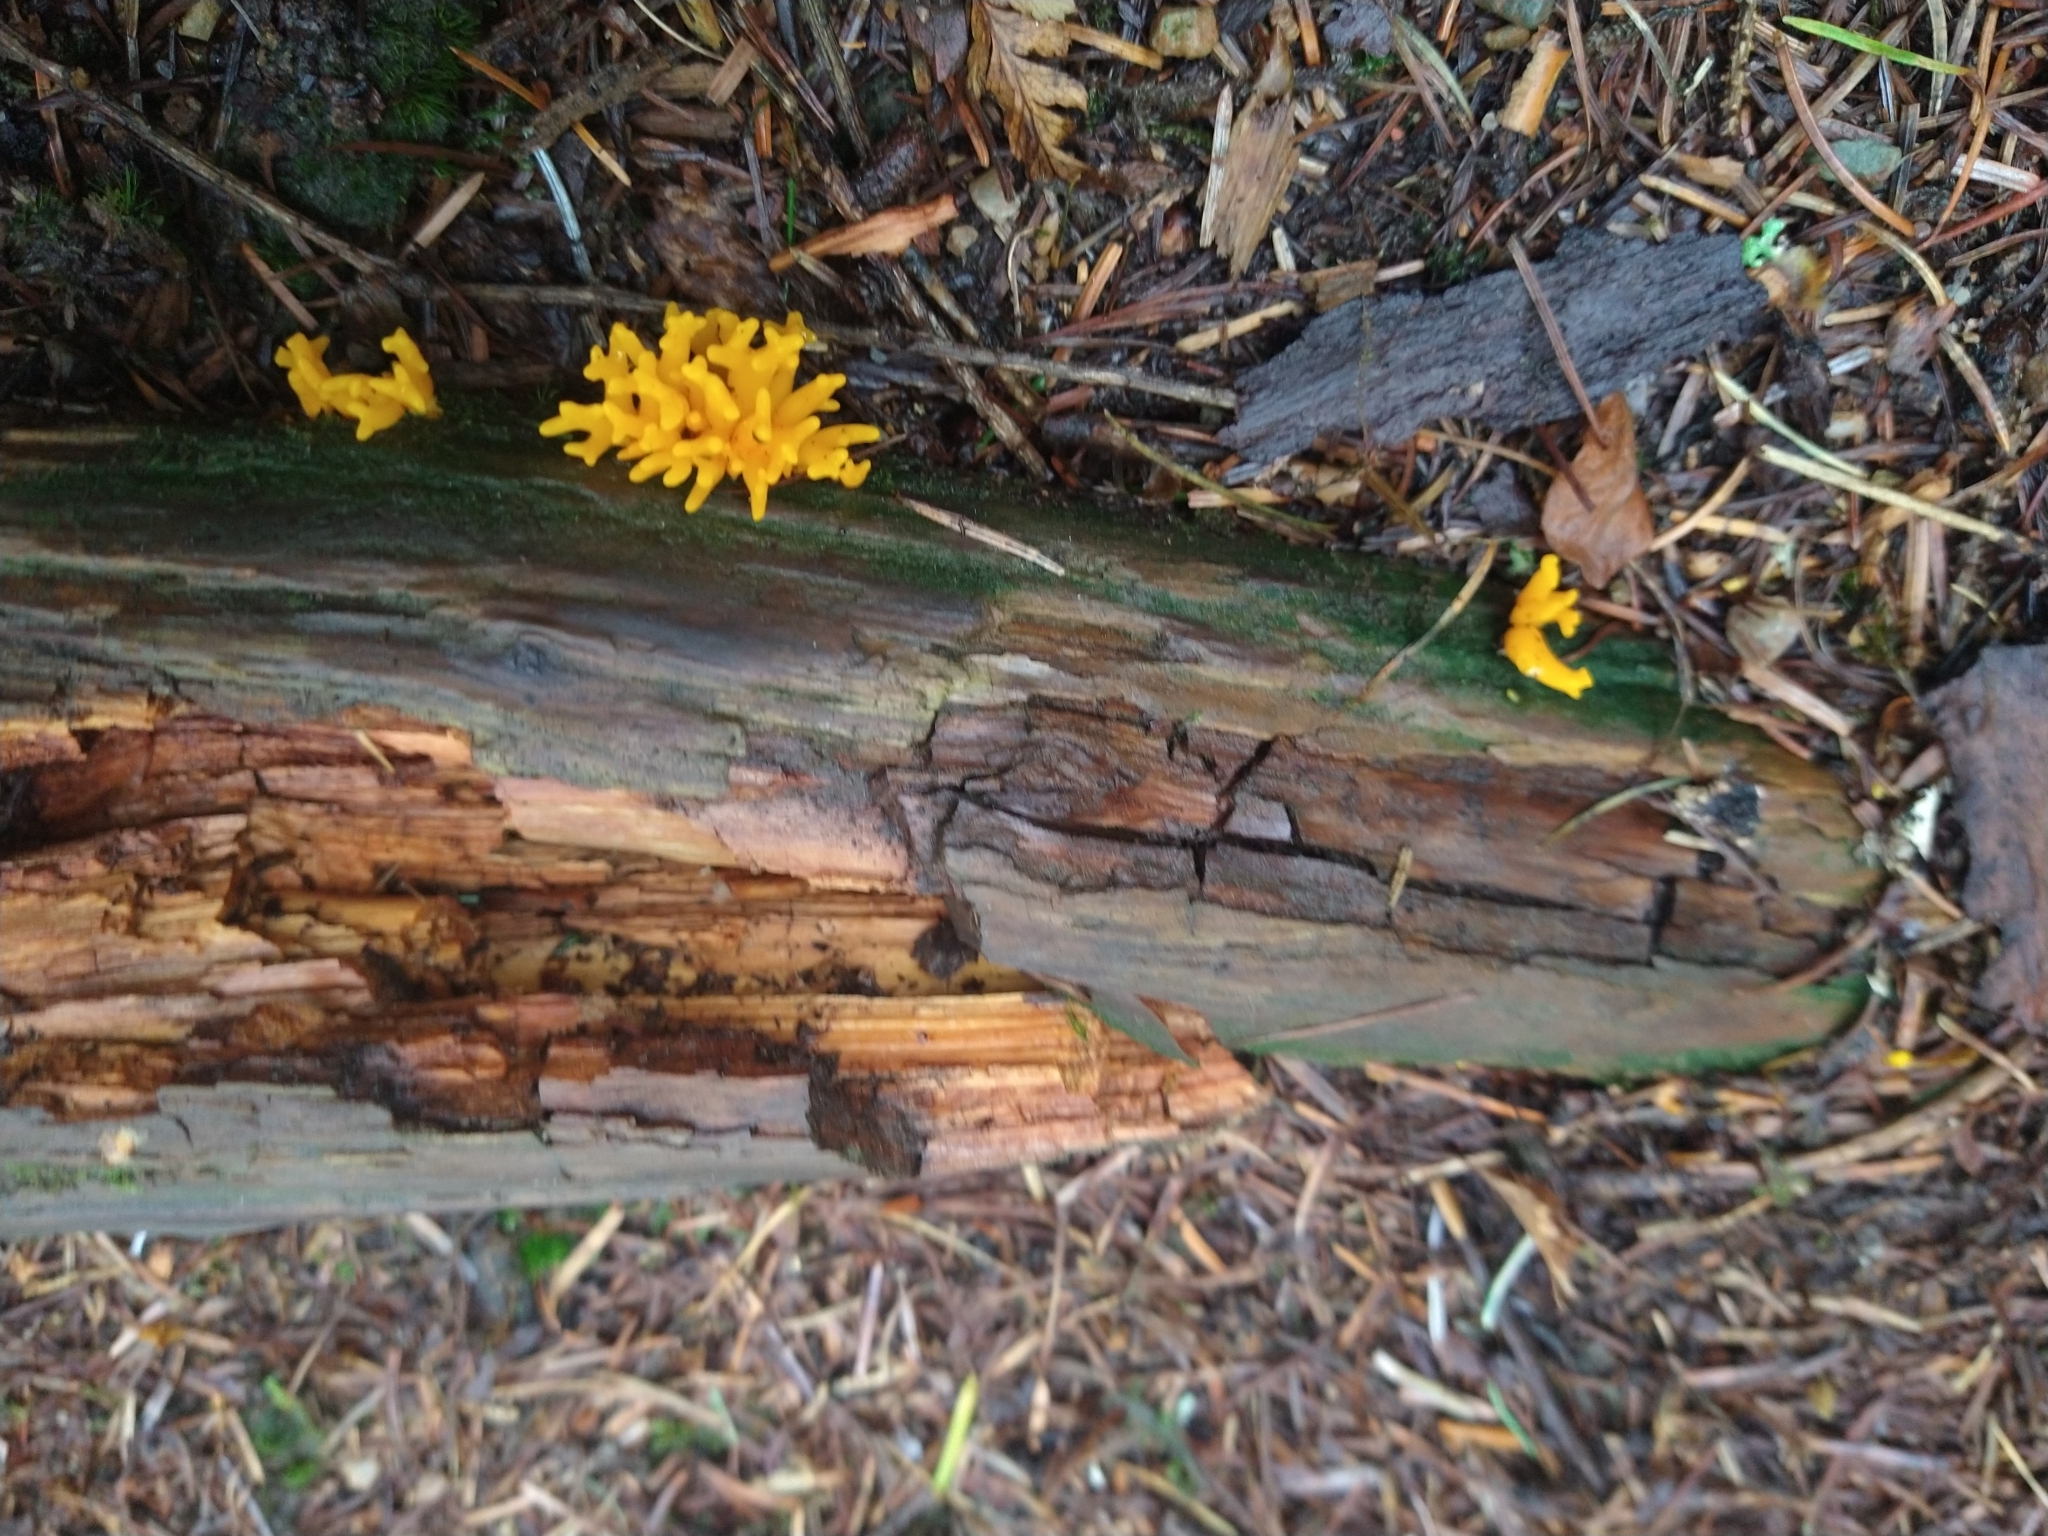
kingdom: Fungi
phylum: Basidiomycota
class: Dacrymycetes
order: Dacrymycetales
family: Dacrymycetaceae
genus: Calocera
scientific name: Calocera viscosa
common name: Yellow stagshorn
